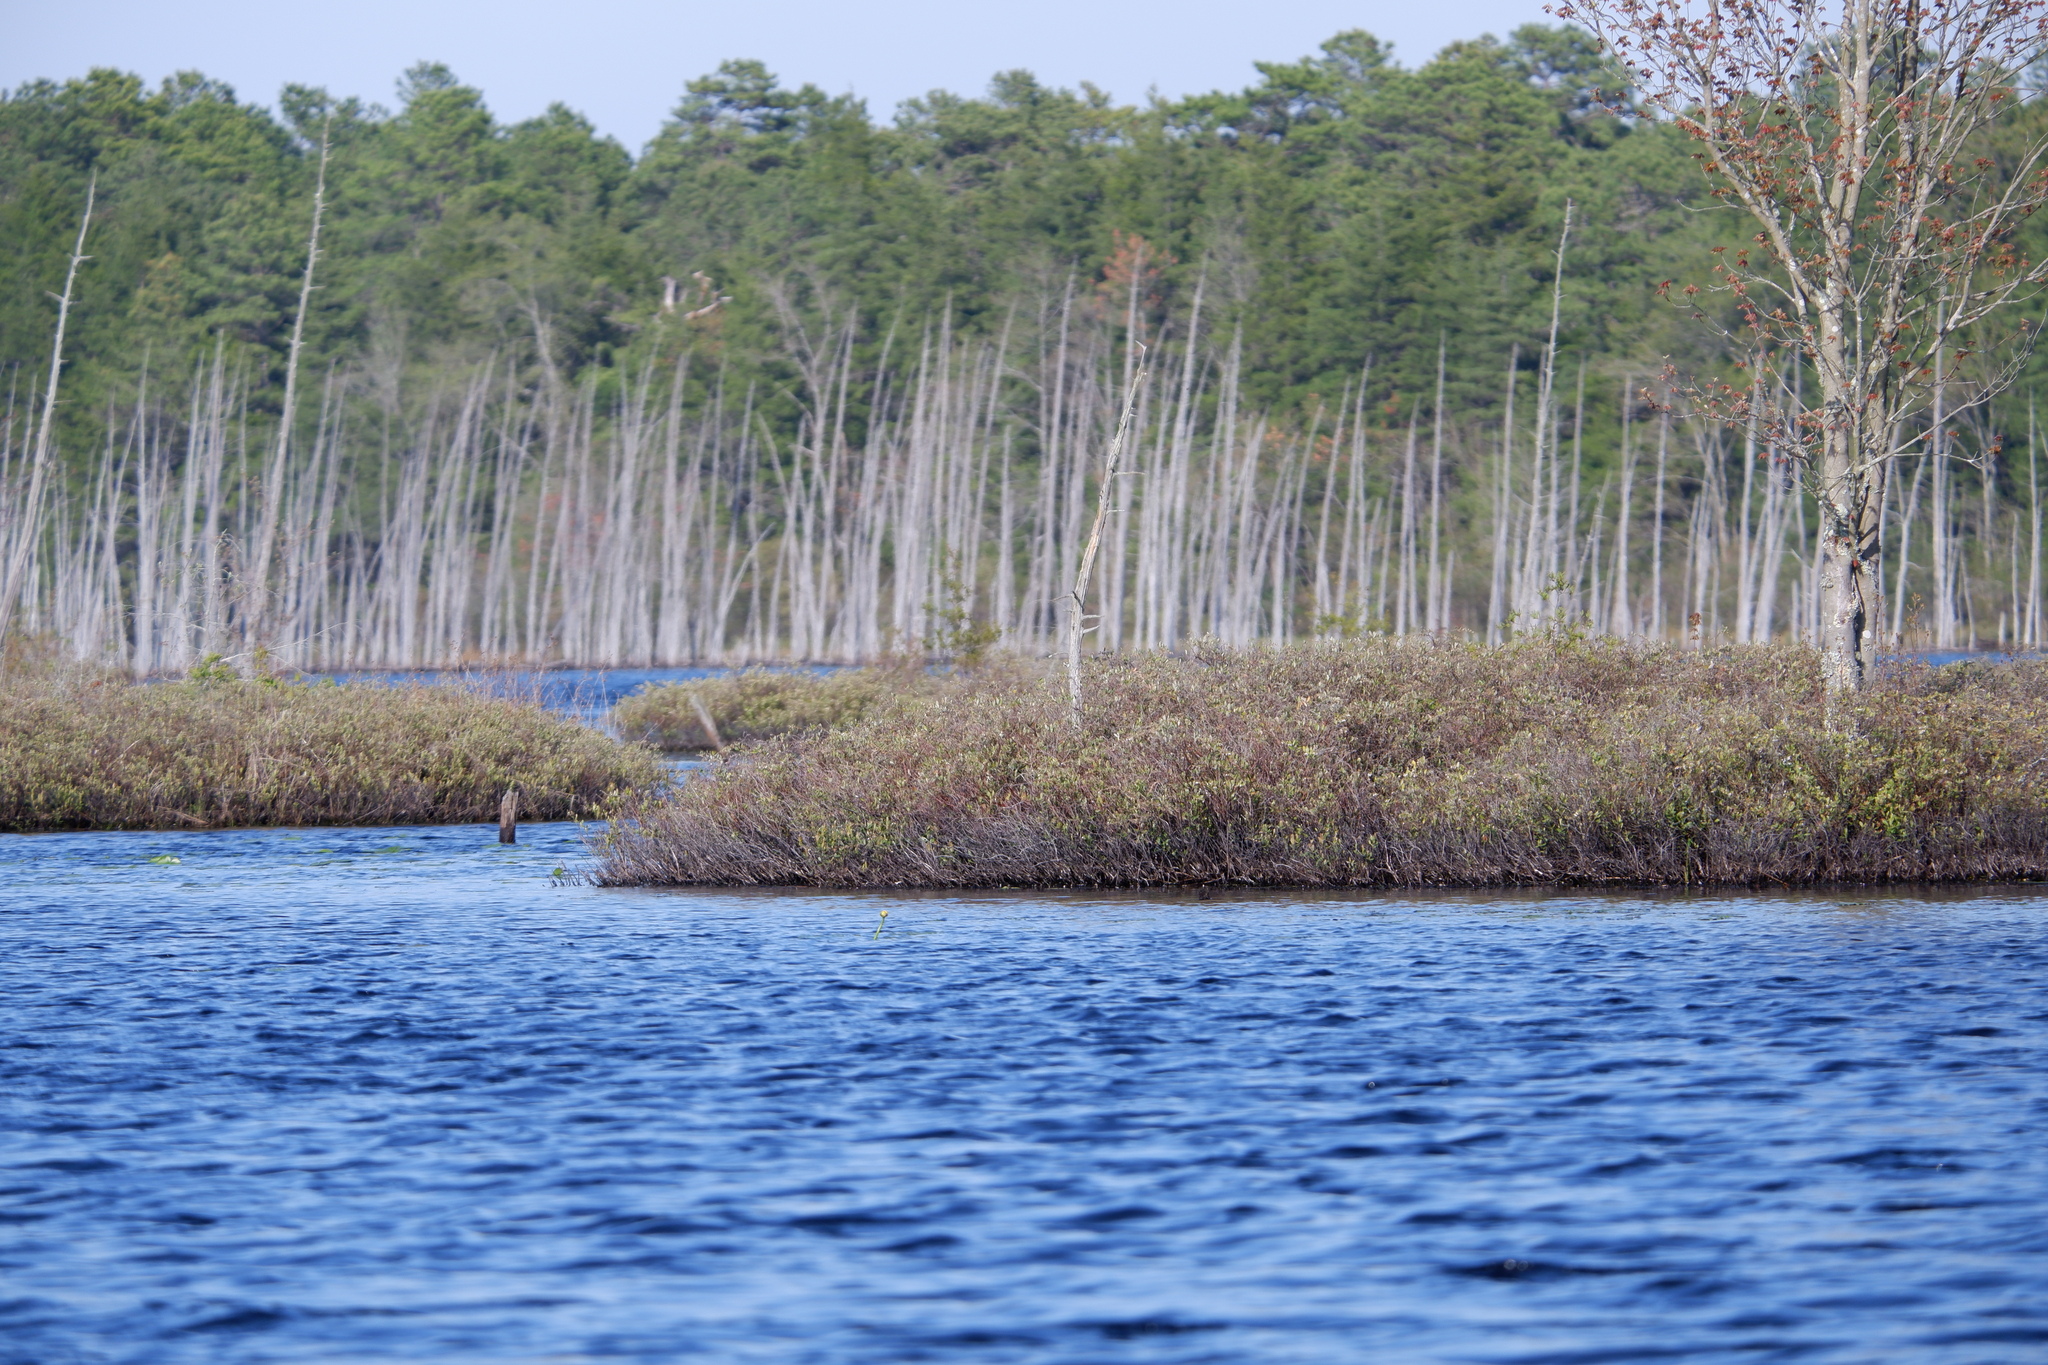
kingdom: Plantae
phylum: Tracheophyta
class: Magnoliopsida
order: Ericales
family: Ericaceae
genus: Chamaedaphne
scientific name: Chamaedaphne calyculata
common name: Leatherleaf
